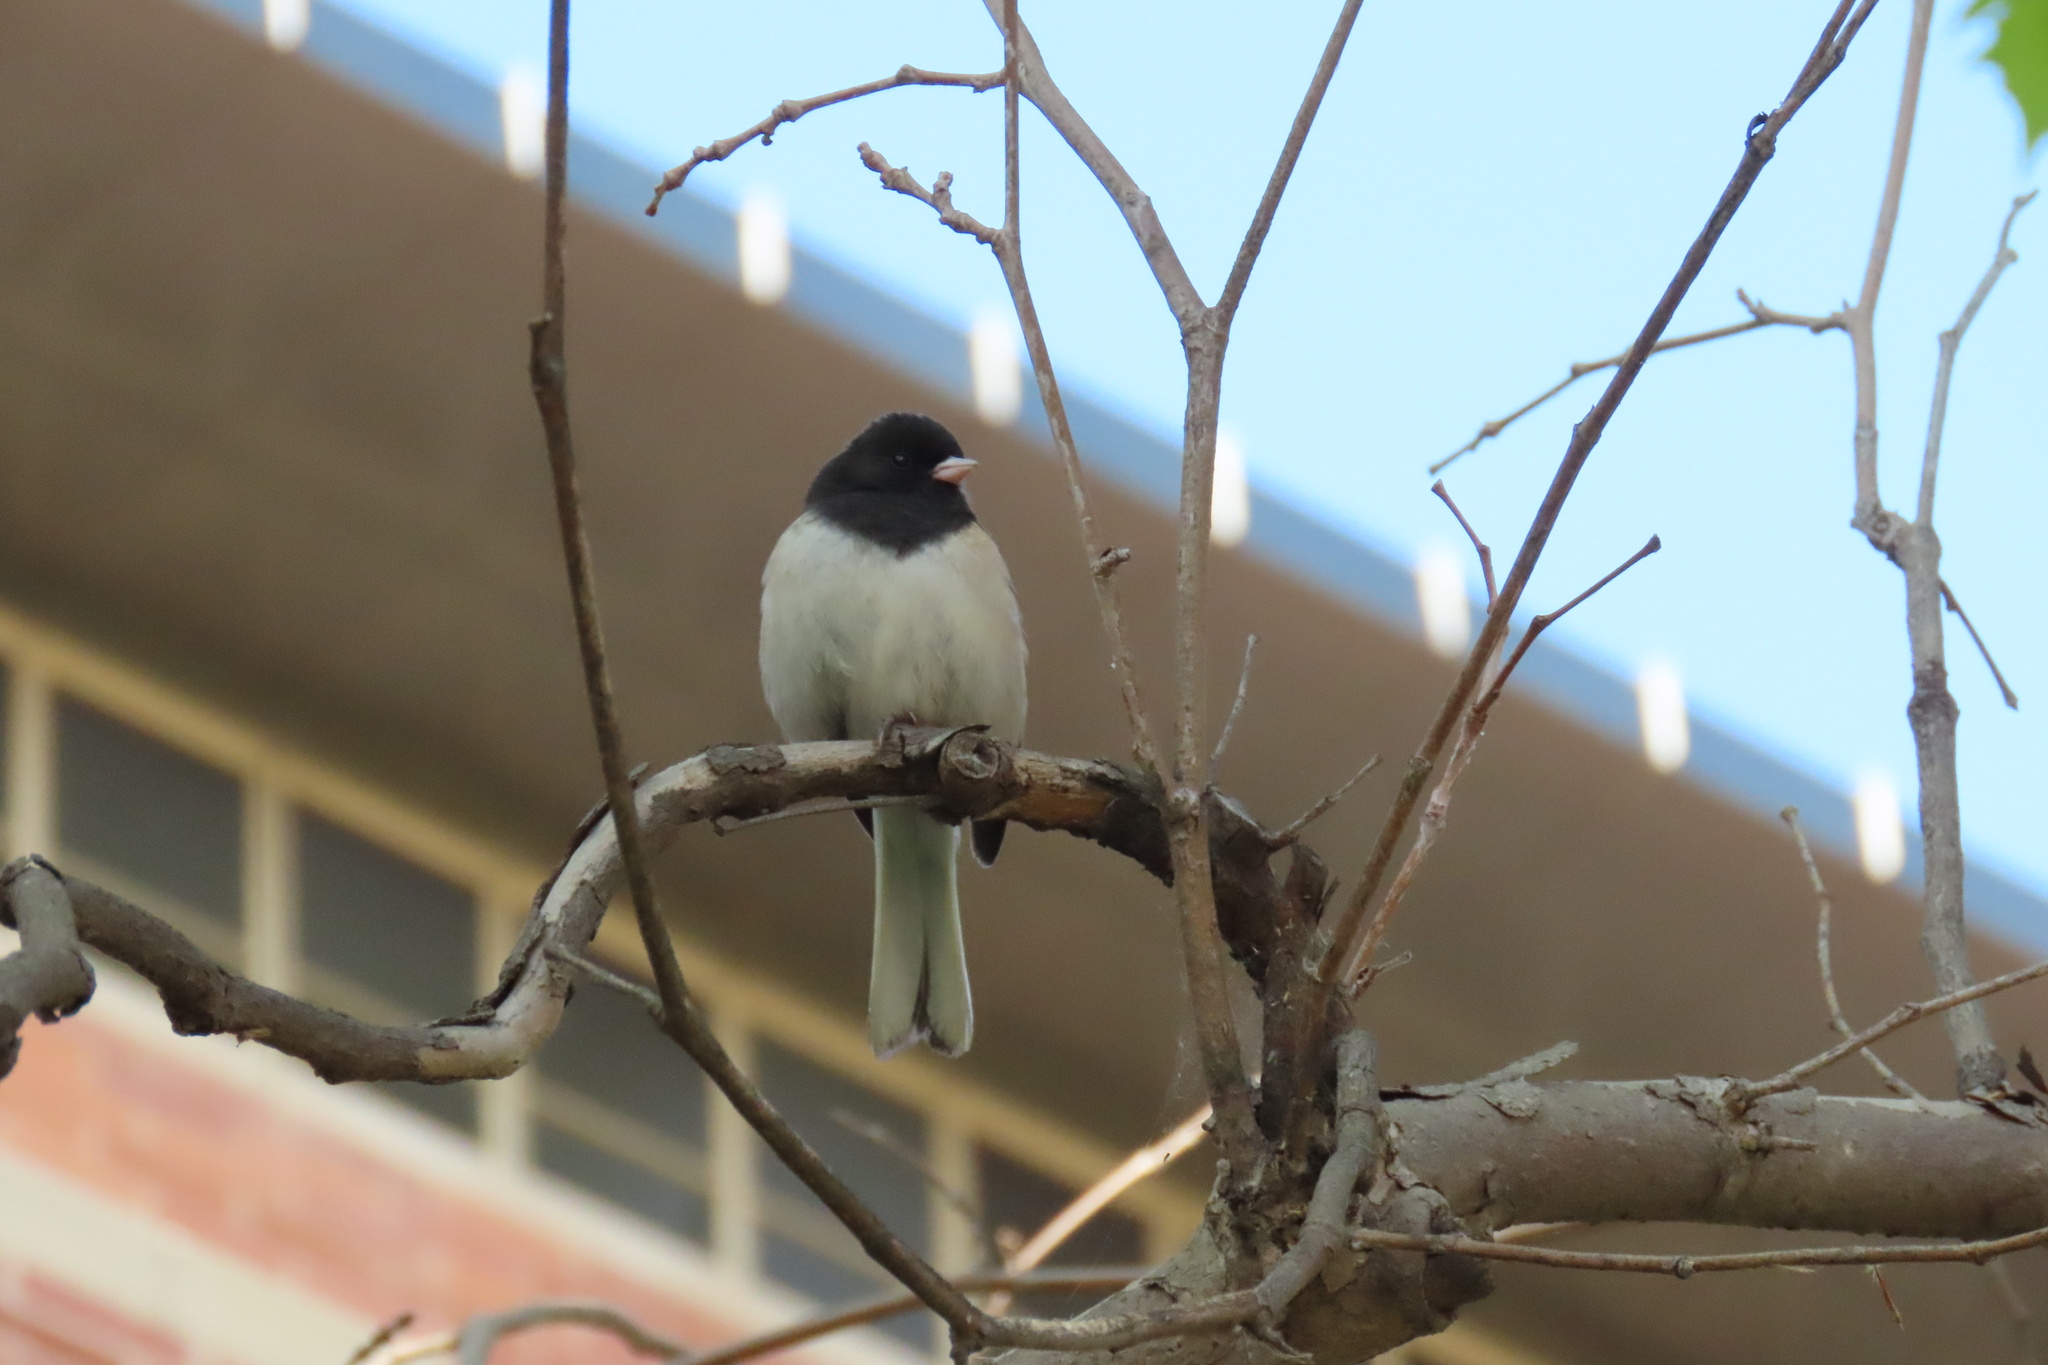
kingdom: Animalia
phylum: Chordata
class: Aves
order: Passeriformes
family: Passerellidae
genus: Junco
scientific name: Junco hyemalis
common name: Dark-eyed junco
